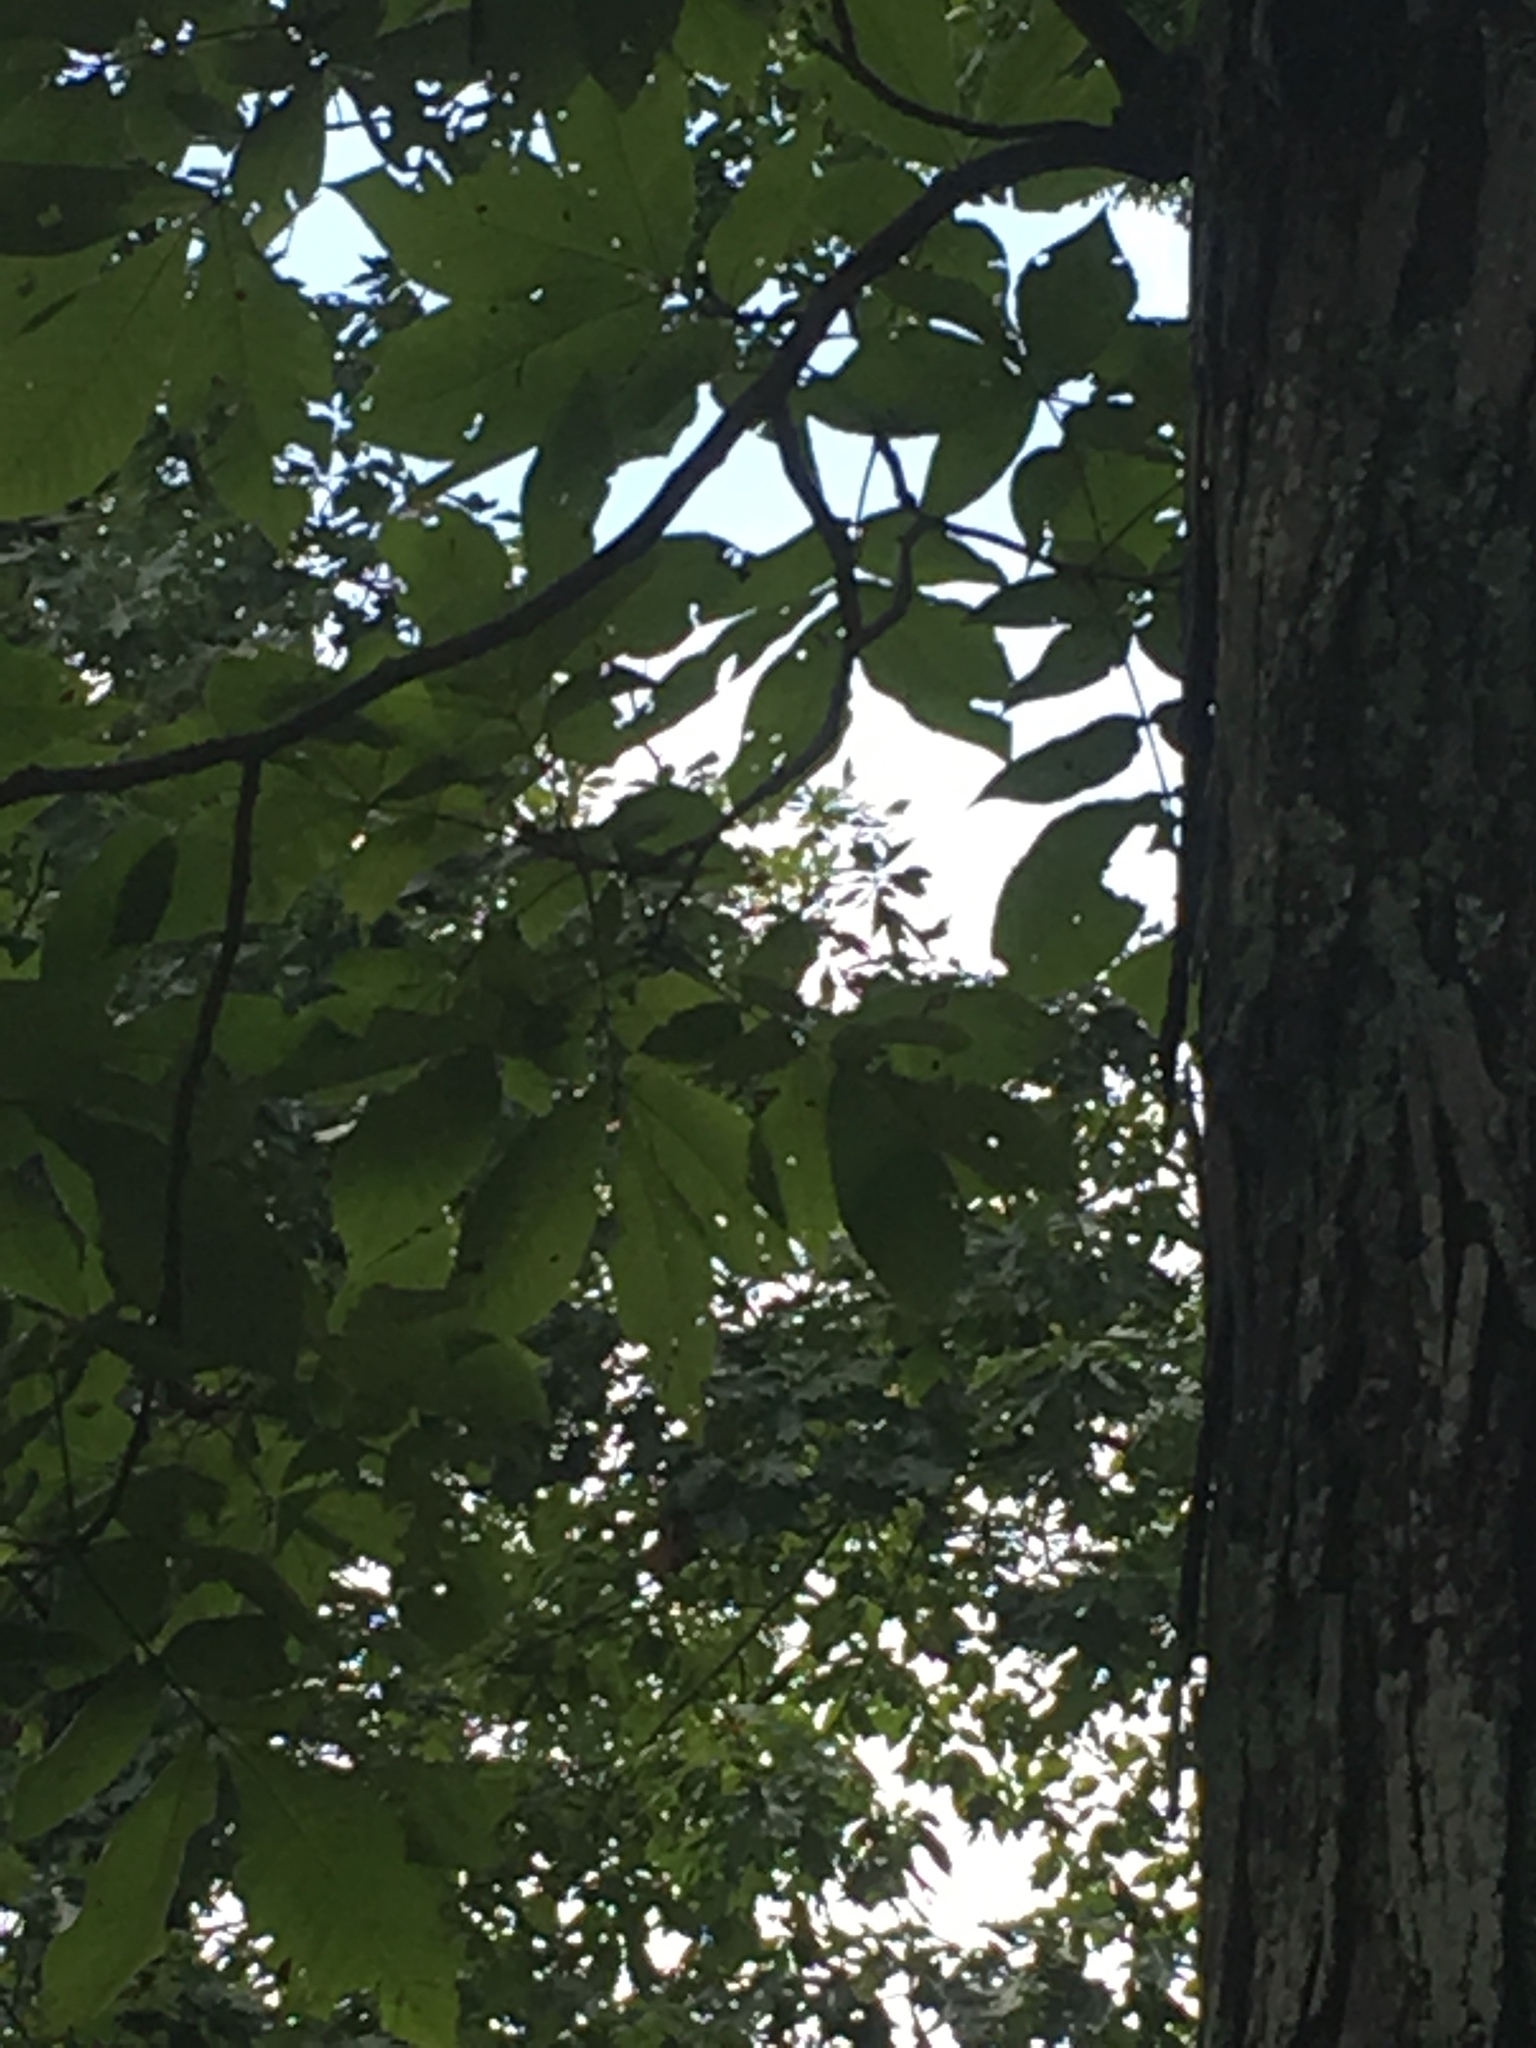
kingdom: Plantae
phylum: Tracheophyta
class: Magnoliopsida
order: Fagales
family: Juglandaceae
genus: Carya
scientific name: Carya ovata
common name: Shagbark hickory
